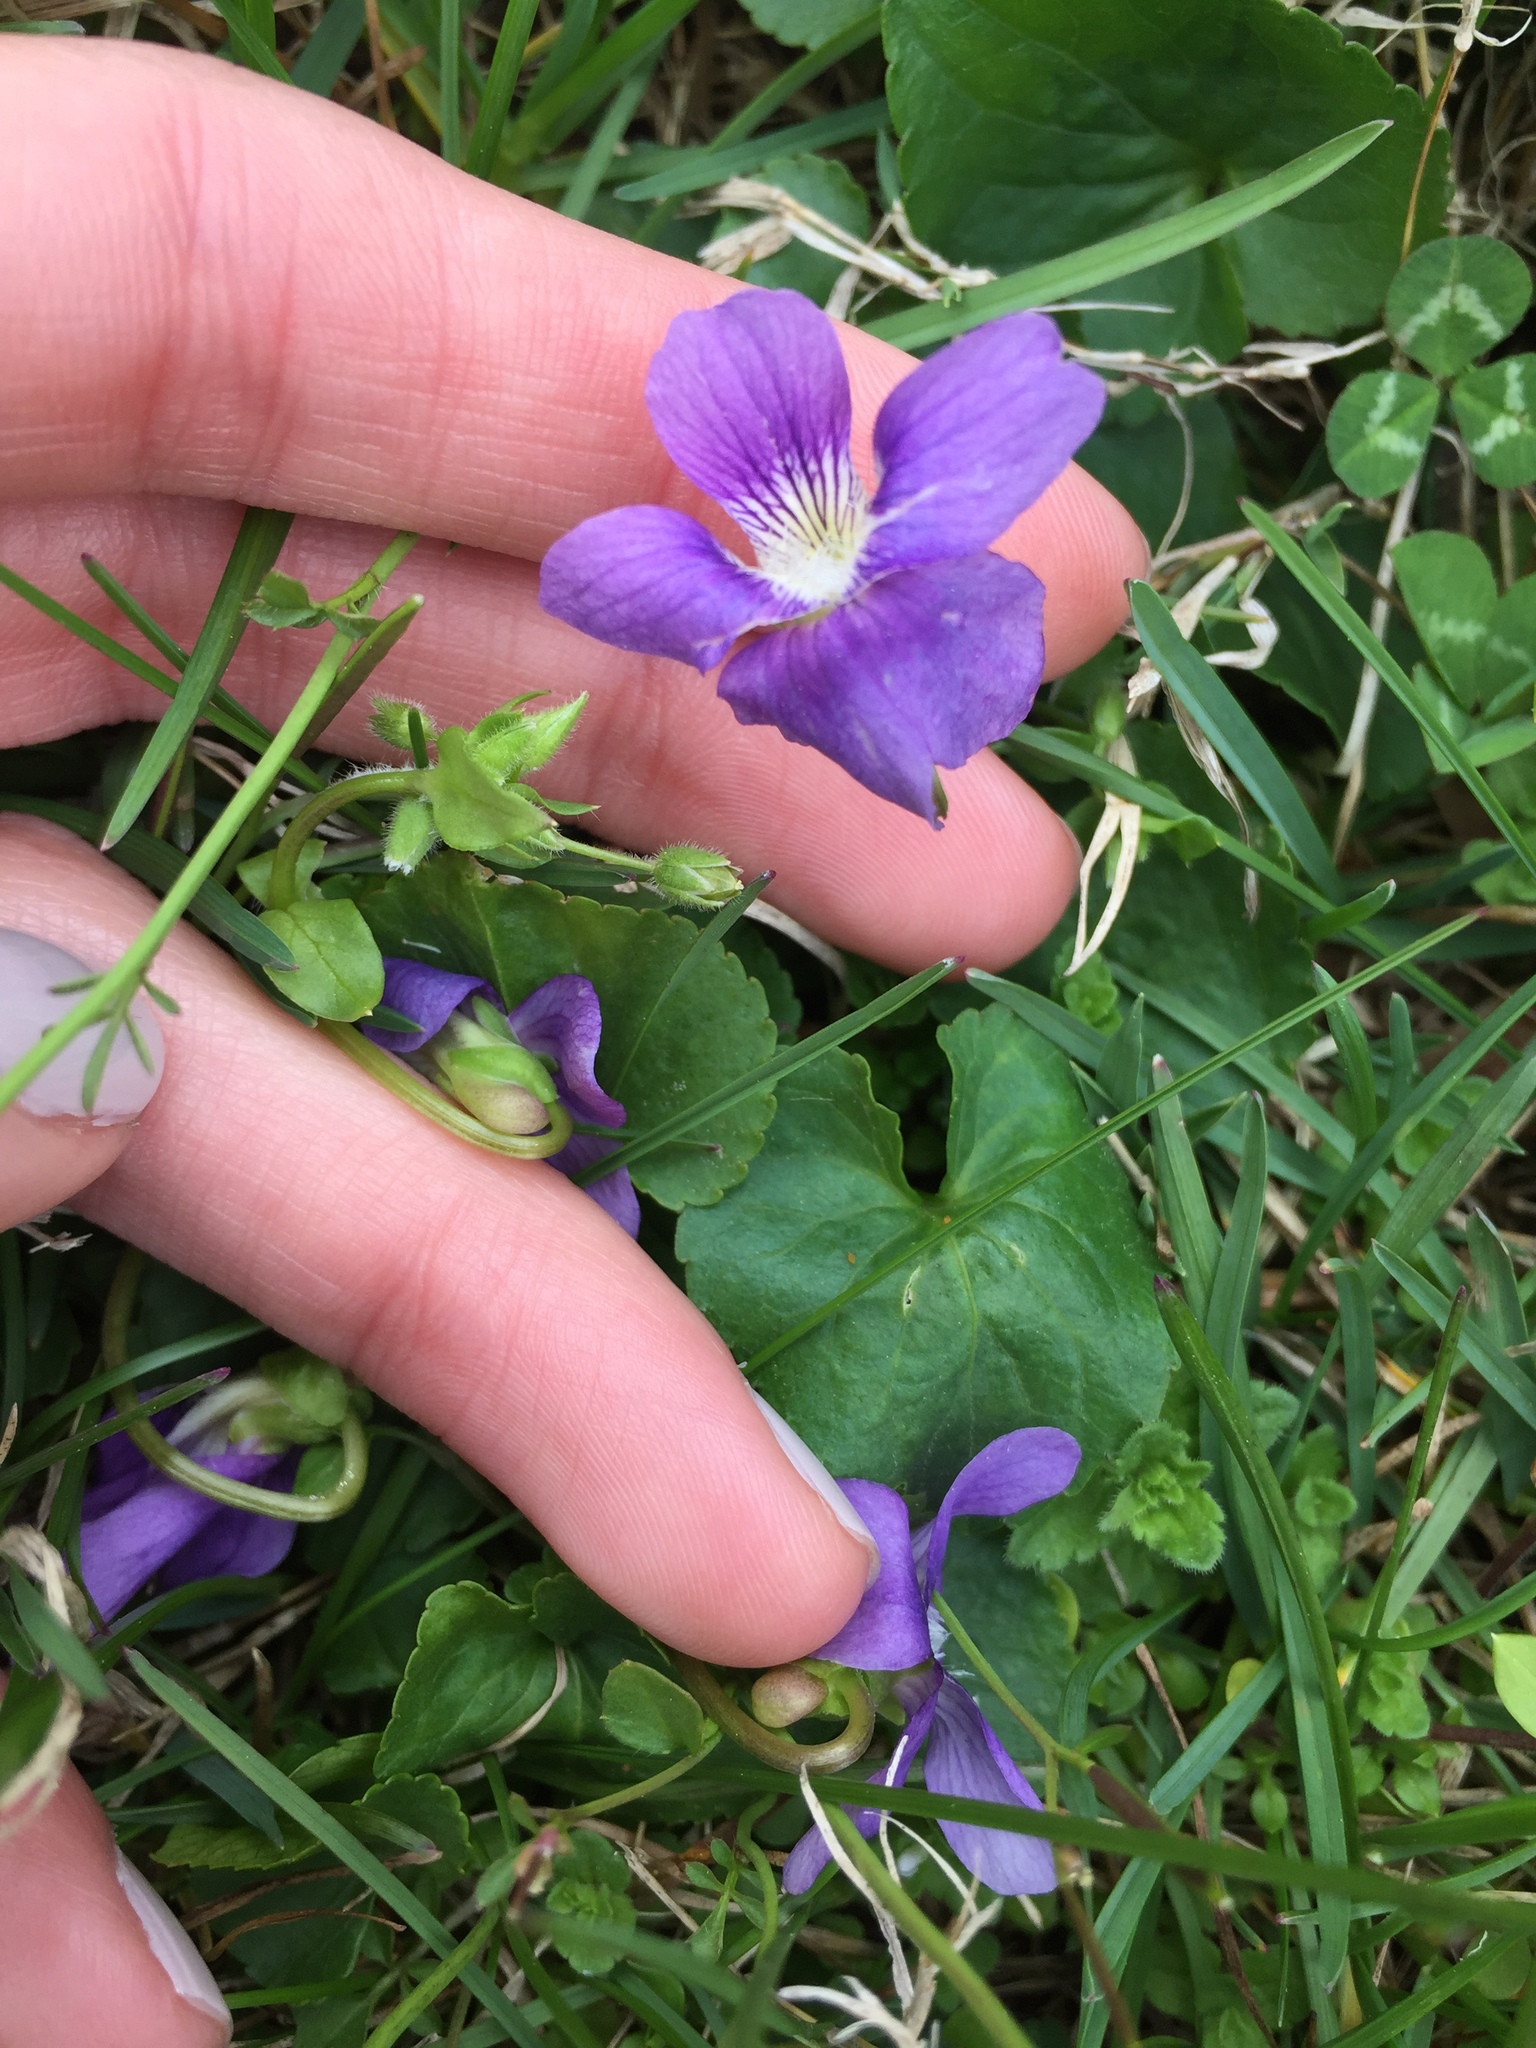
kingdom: Plantae
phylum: Tracheophyta
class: Magnoliopsida
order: Malpighiales
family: Violaceae
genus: Viola
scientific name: Viola sororia
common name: Dooryard violet
